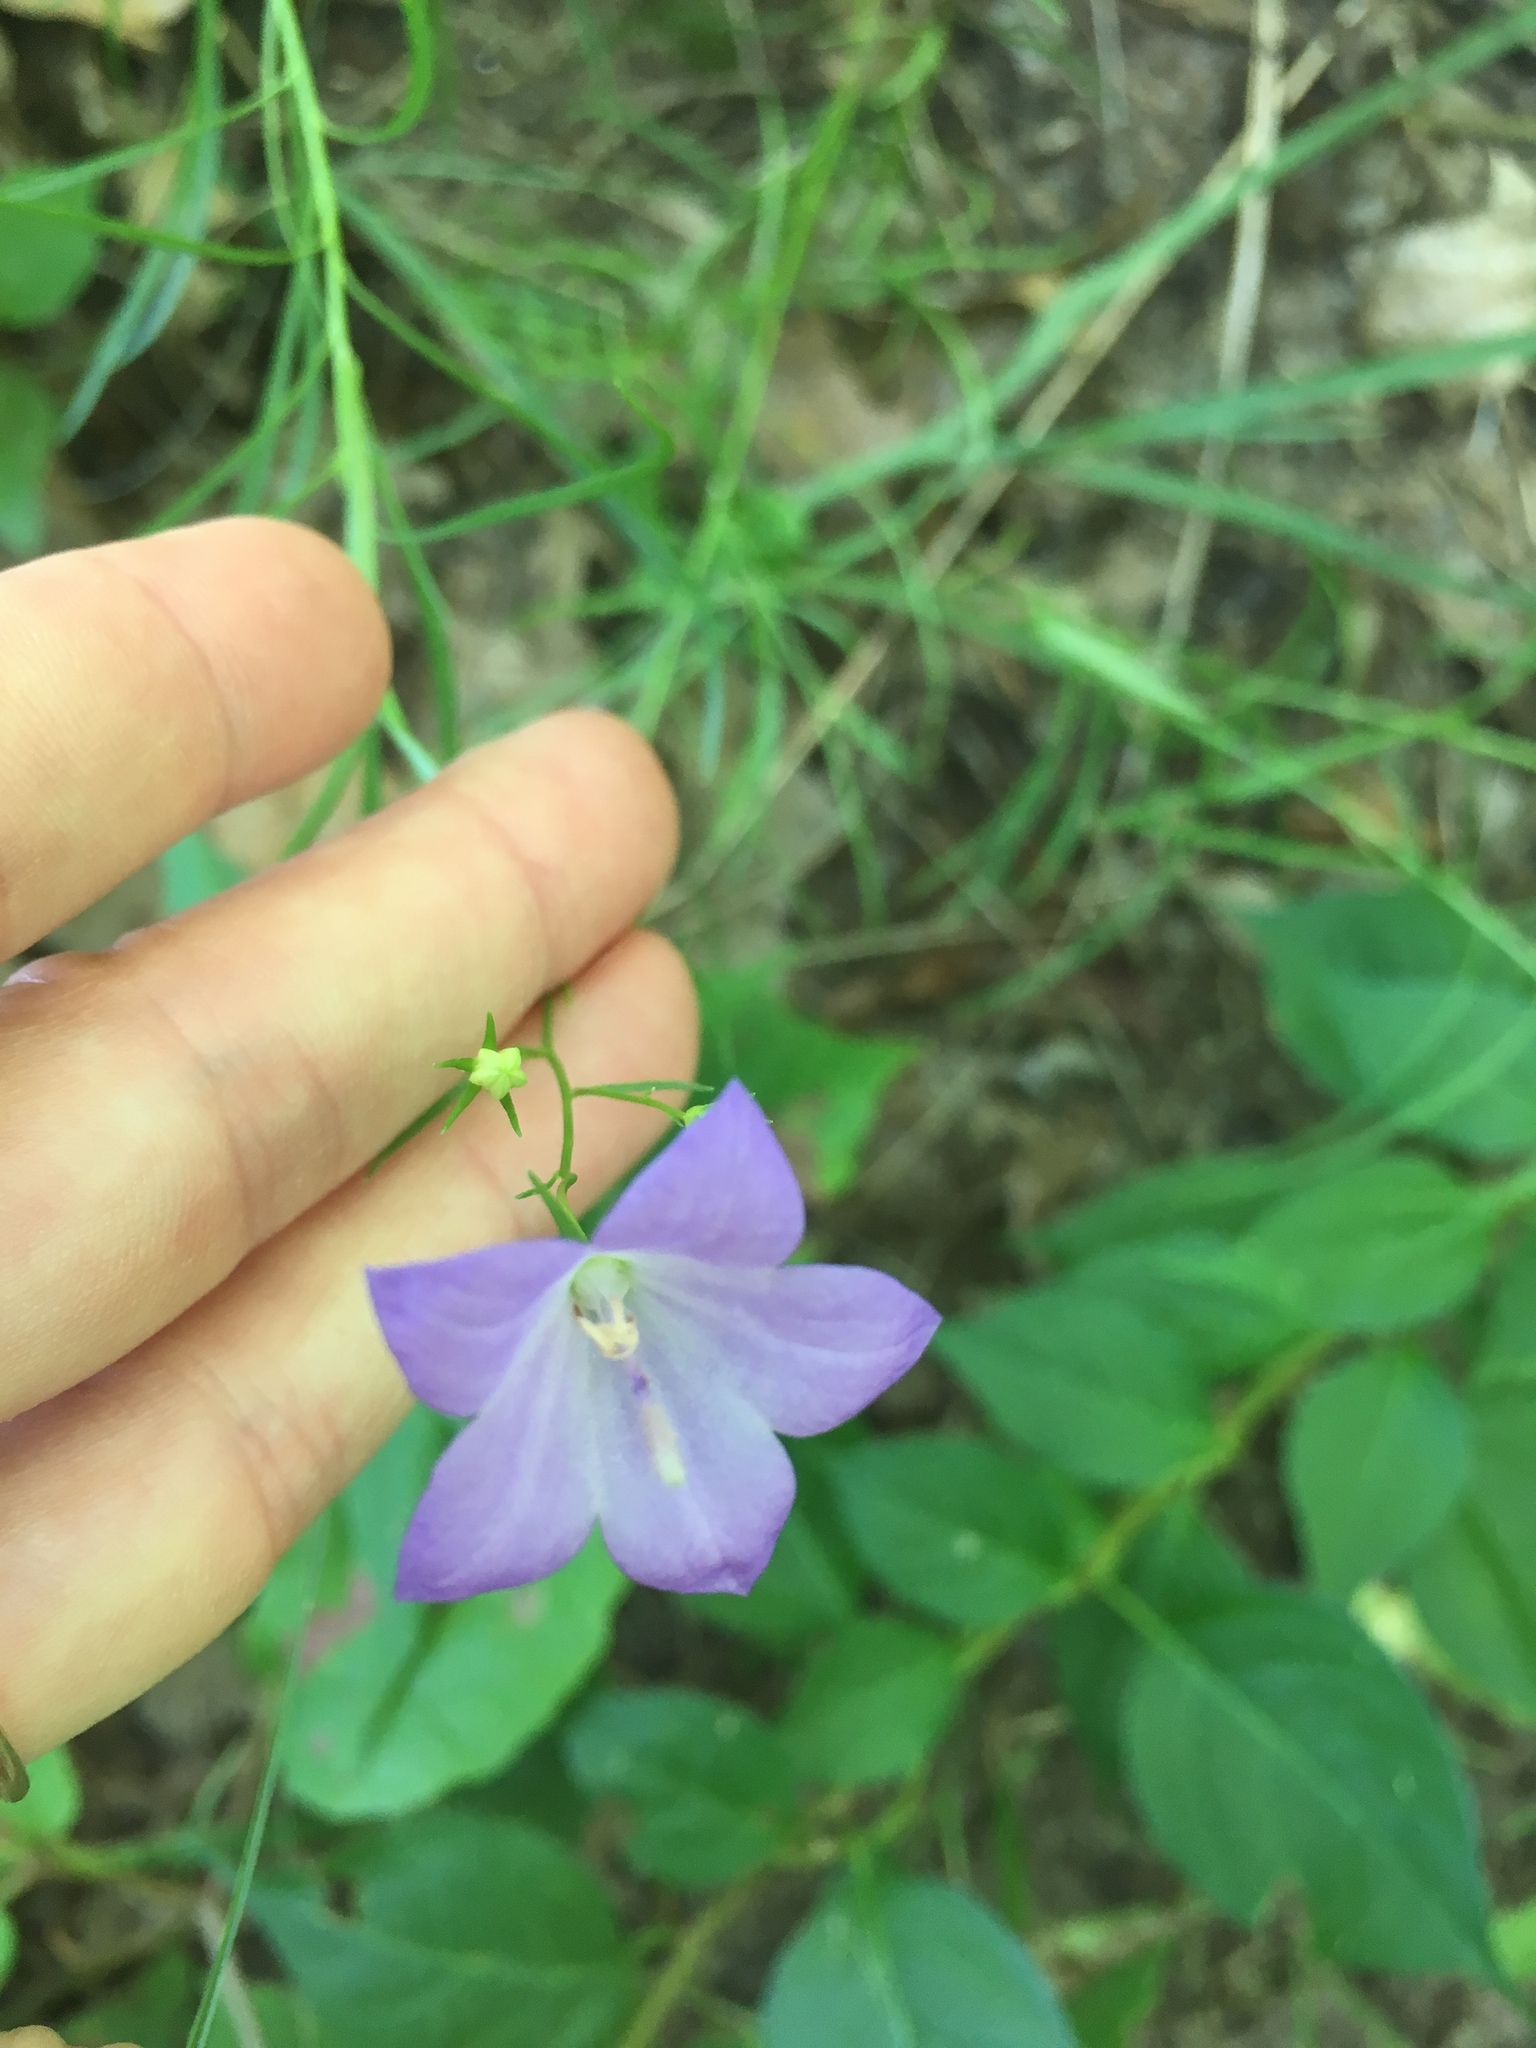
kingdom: Plantae
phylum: Tracheophyta
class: Magnoliopsida
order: Asterales
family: Campanulaceae
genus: Campanula
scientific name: Campanula intercedens
